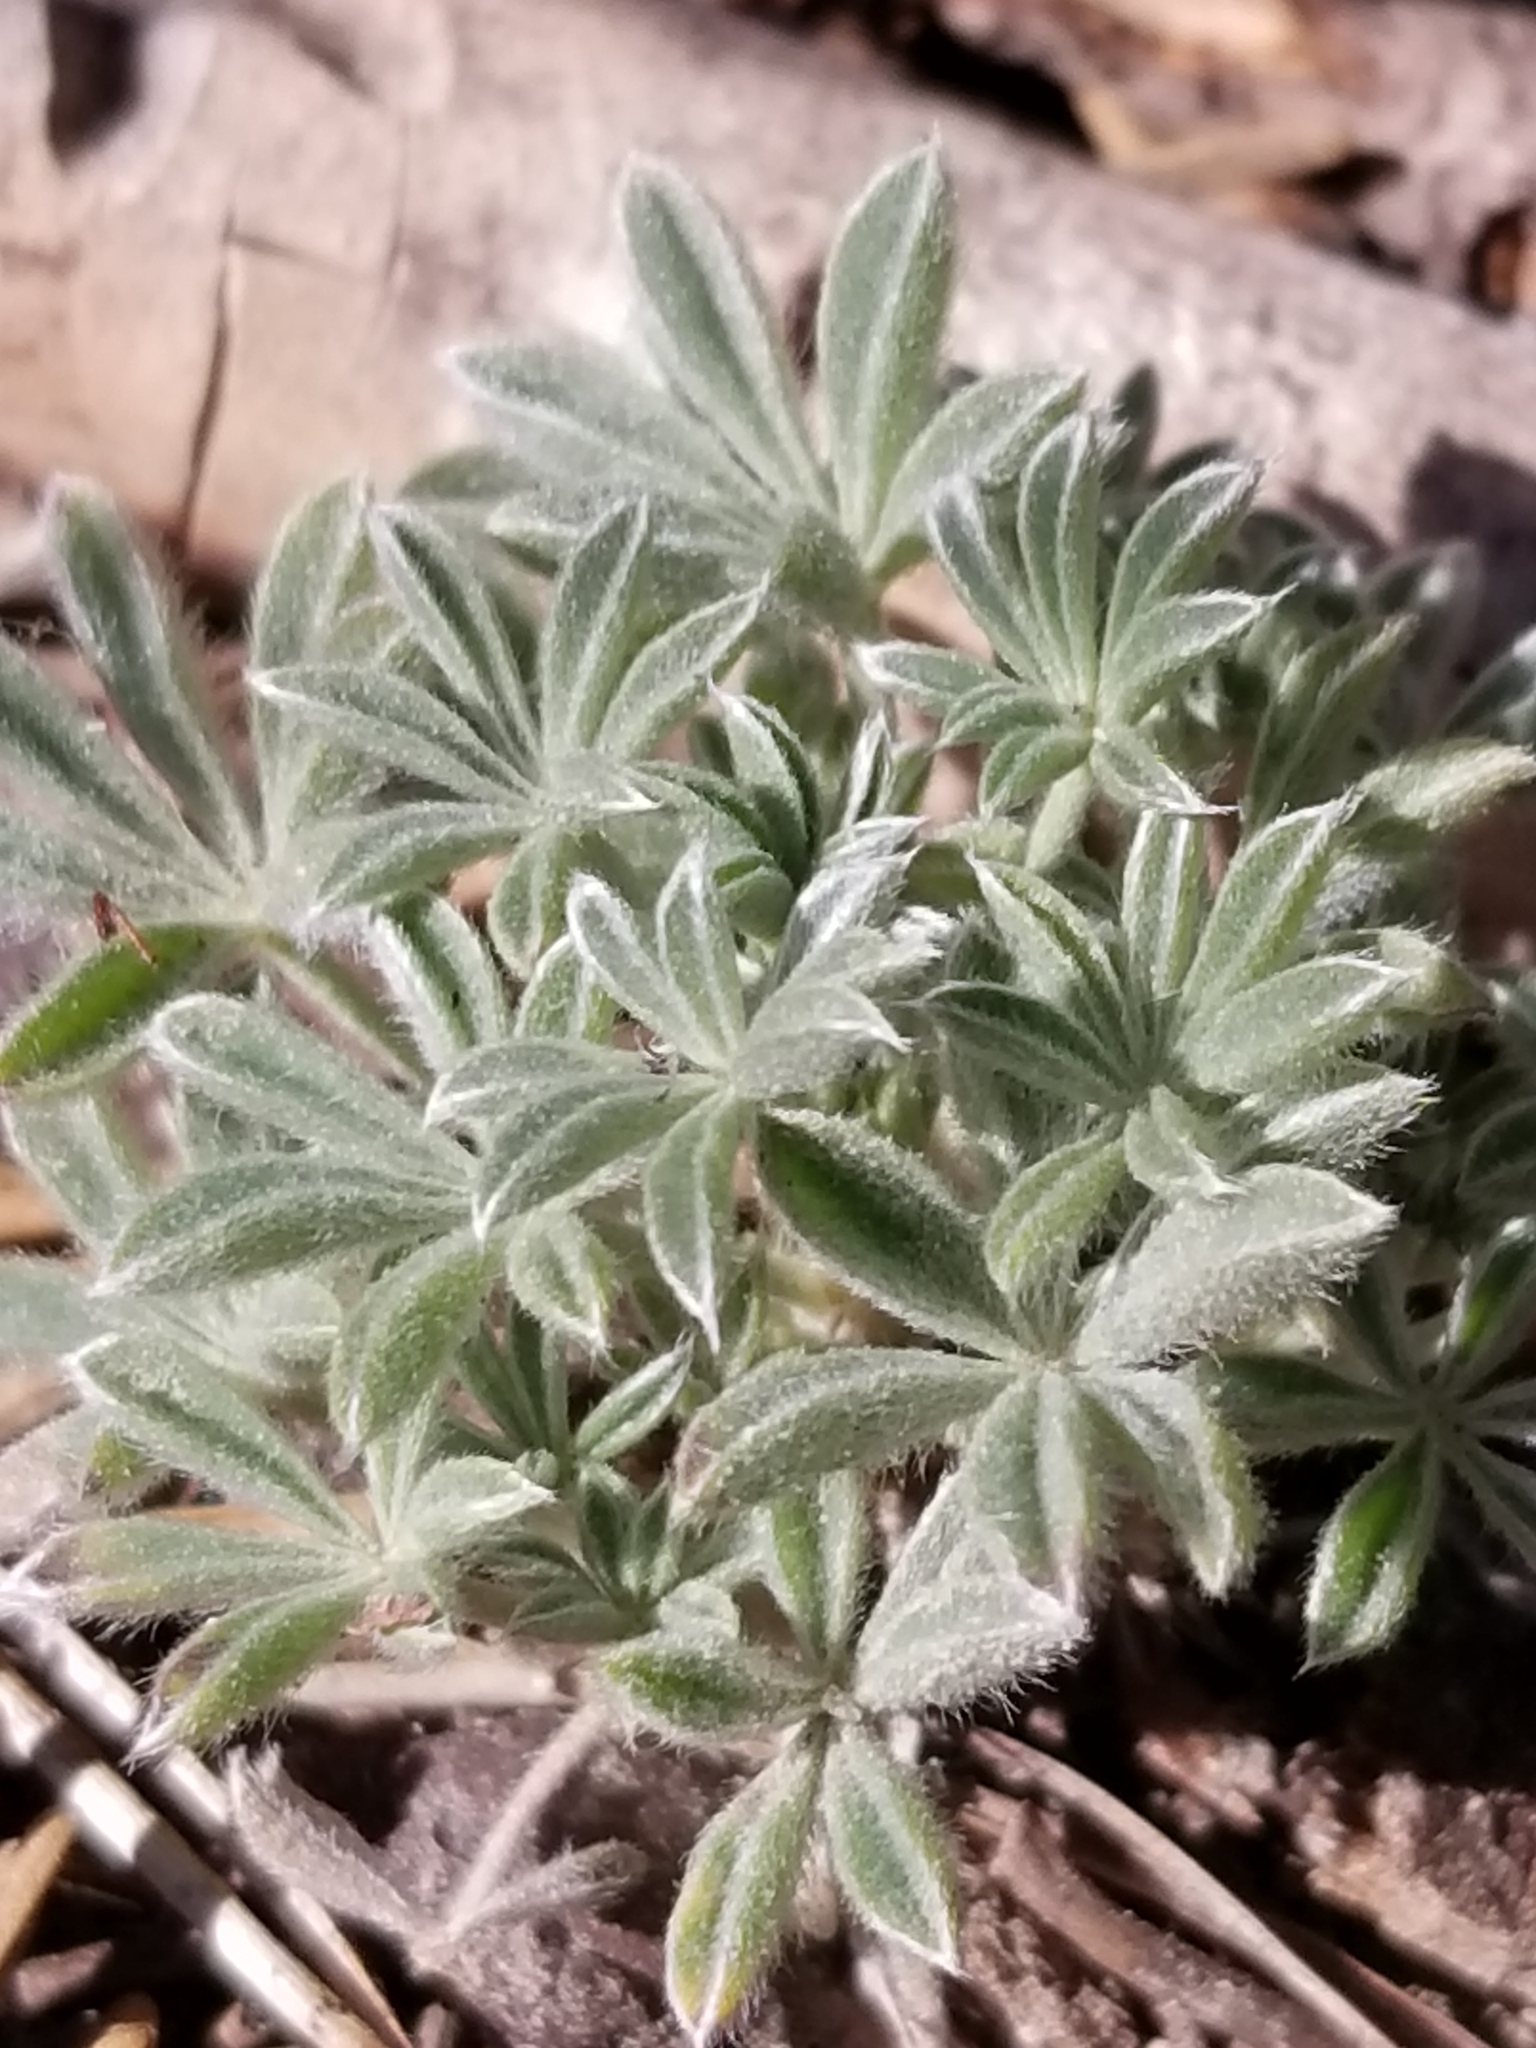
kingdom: Plantae
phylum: Tracheophyta
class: Magnoliopsida
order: Fabales
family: Fabaceae
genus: Lupinus
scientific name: Lupinus lepidus
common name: Prairie lupine
